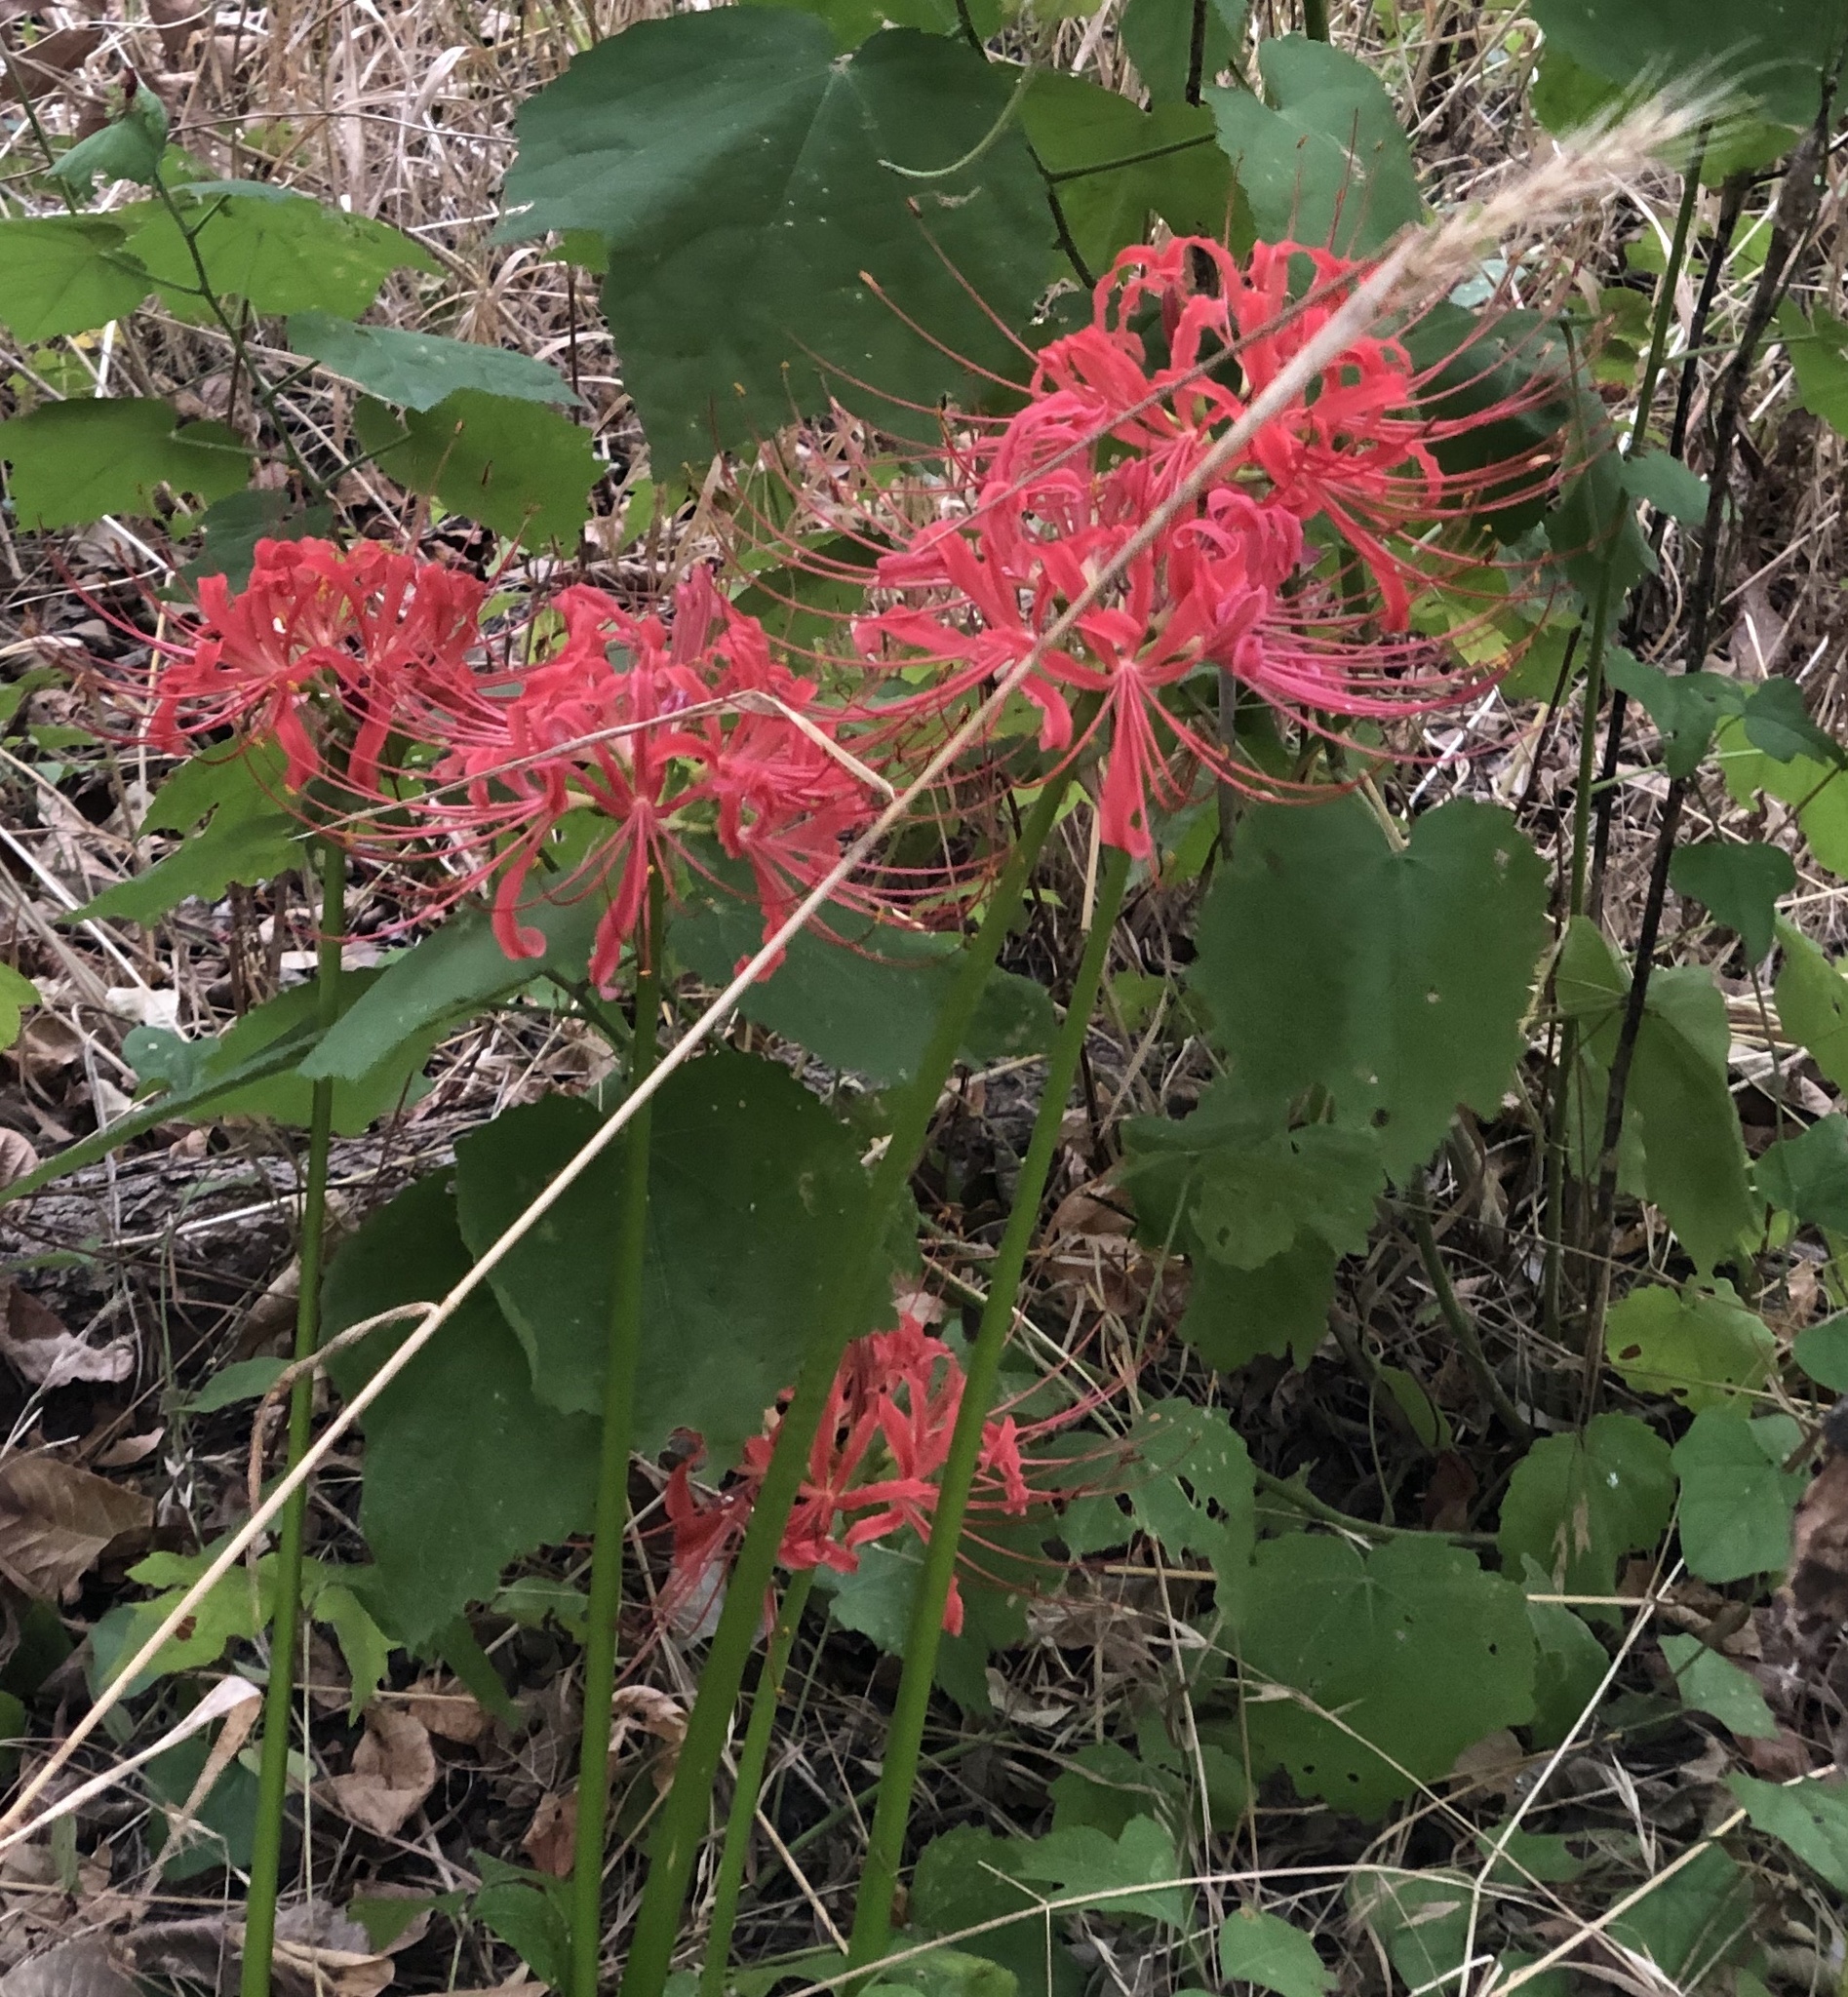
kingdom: Plantae
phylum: Tracheophyta
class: Liliopsida
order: Asparagales
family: Amaryllidaceae
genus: Lycoris
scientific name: Lycoris radiata
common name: Red spider lily
